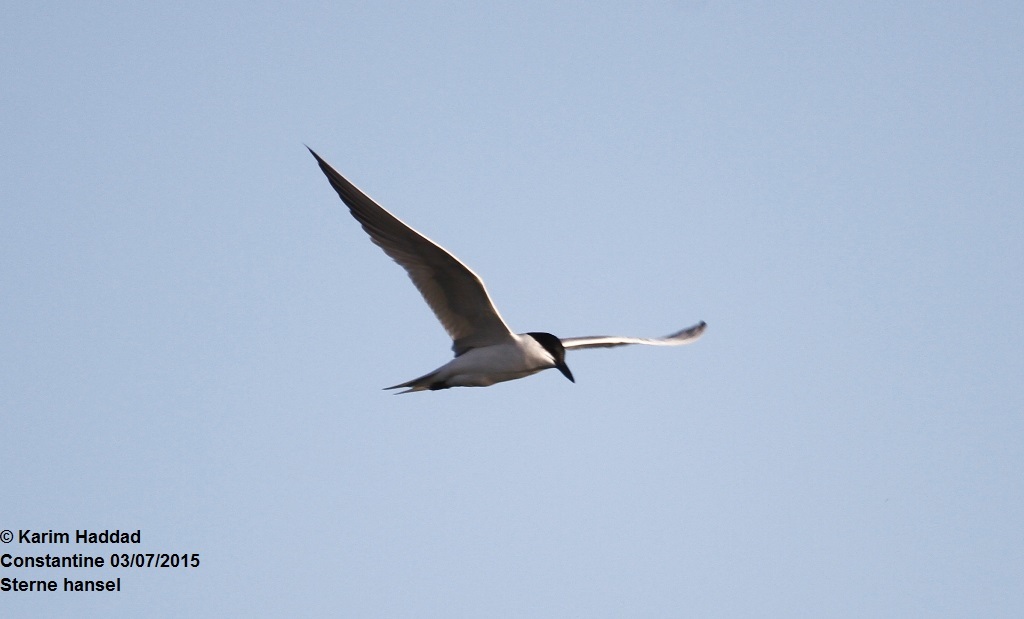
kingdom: Animalia
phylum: Chordata
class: Aves
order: Charadriiformes
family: Laridae
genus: Gelochelidon
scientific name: Gelochelidon nilotica
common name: Gull-billed tern
